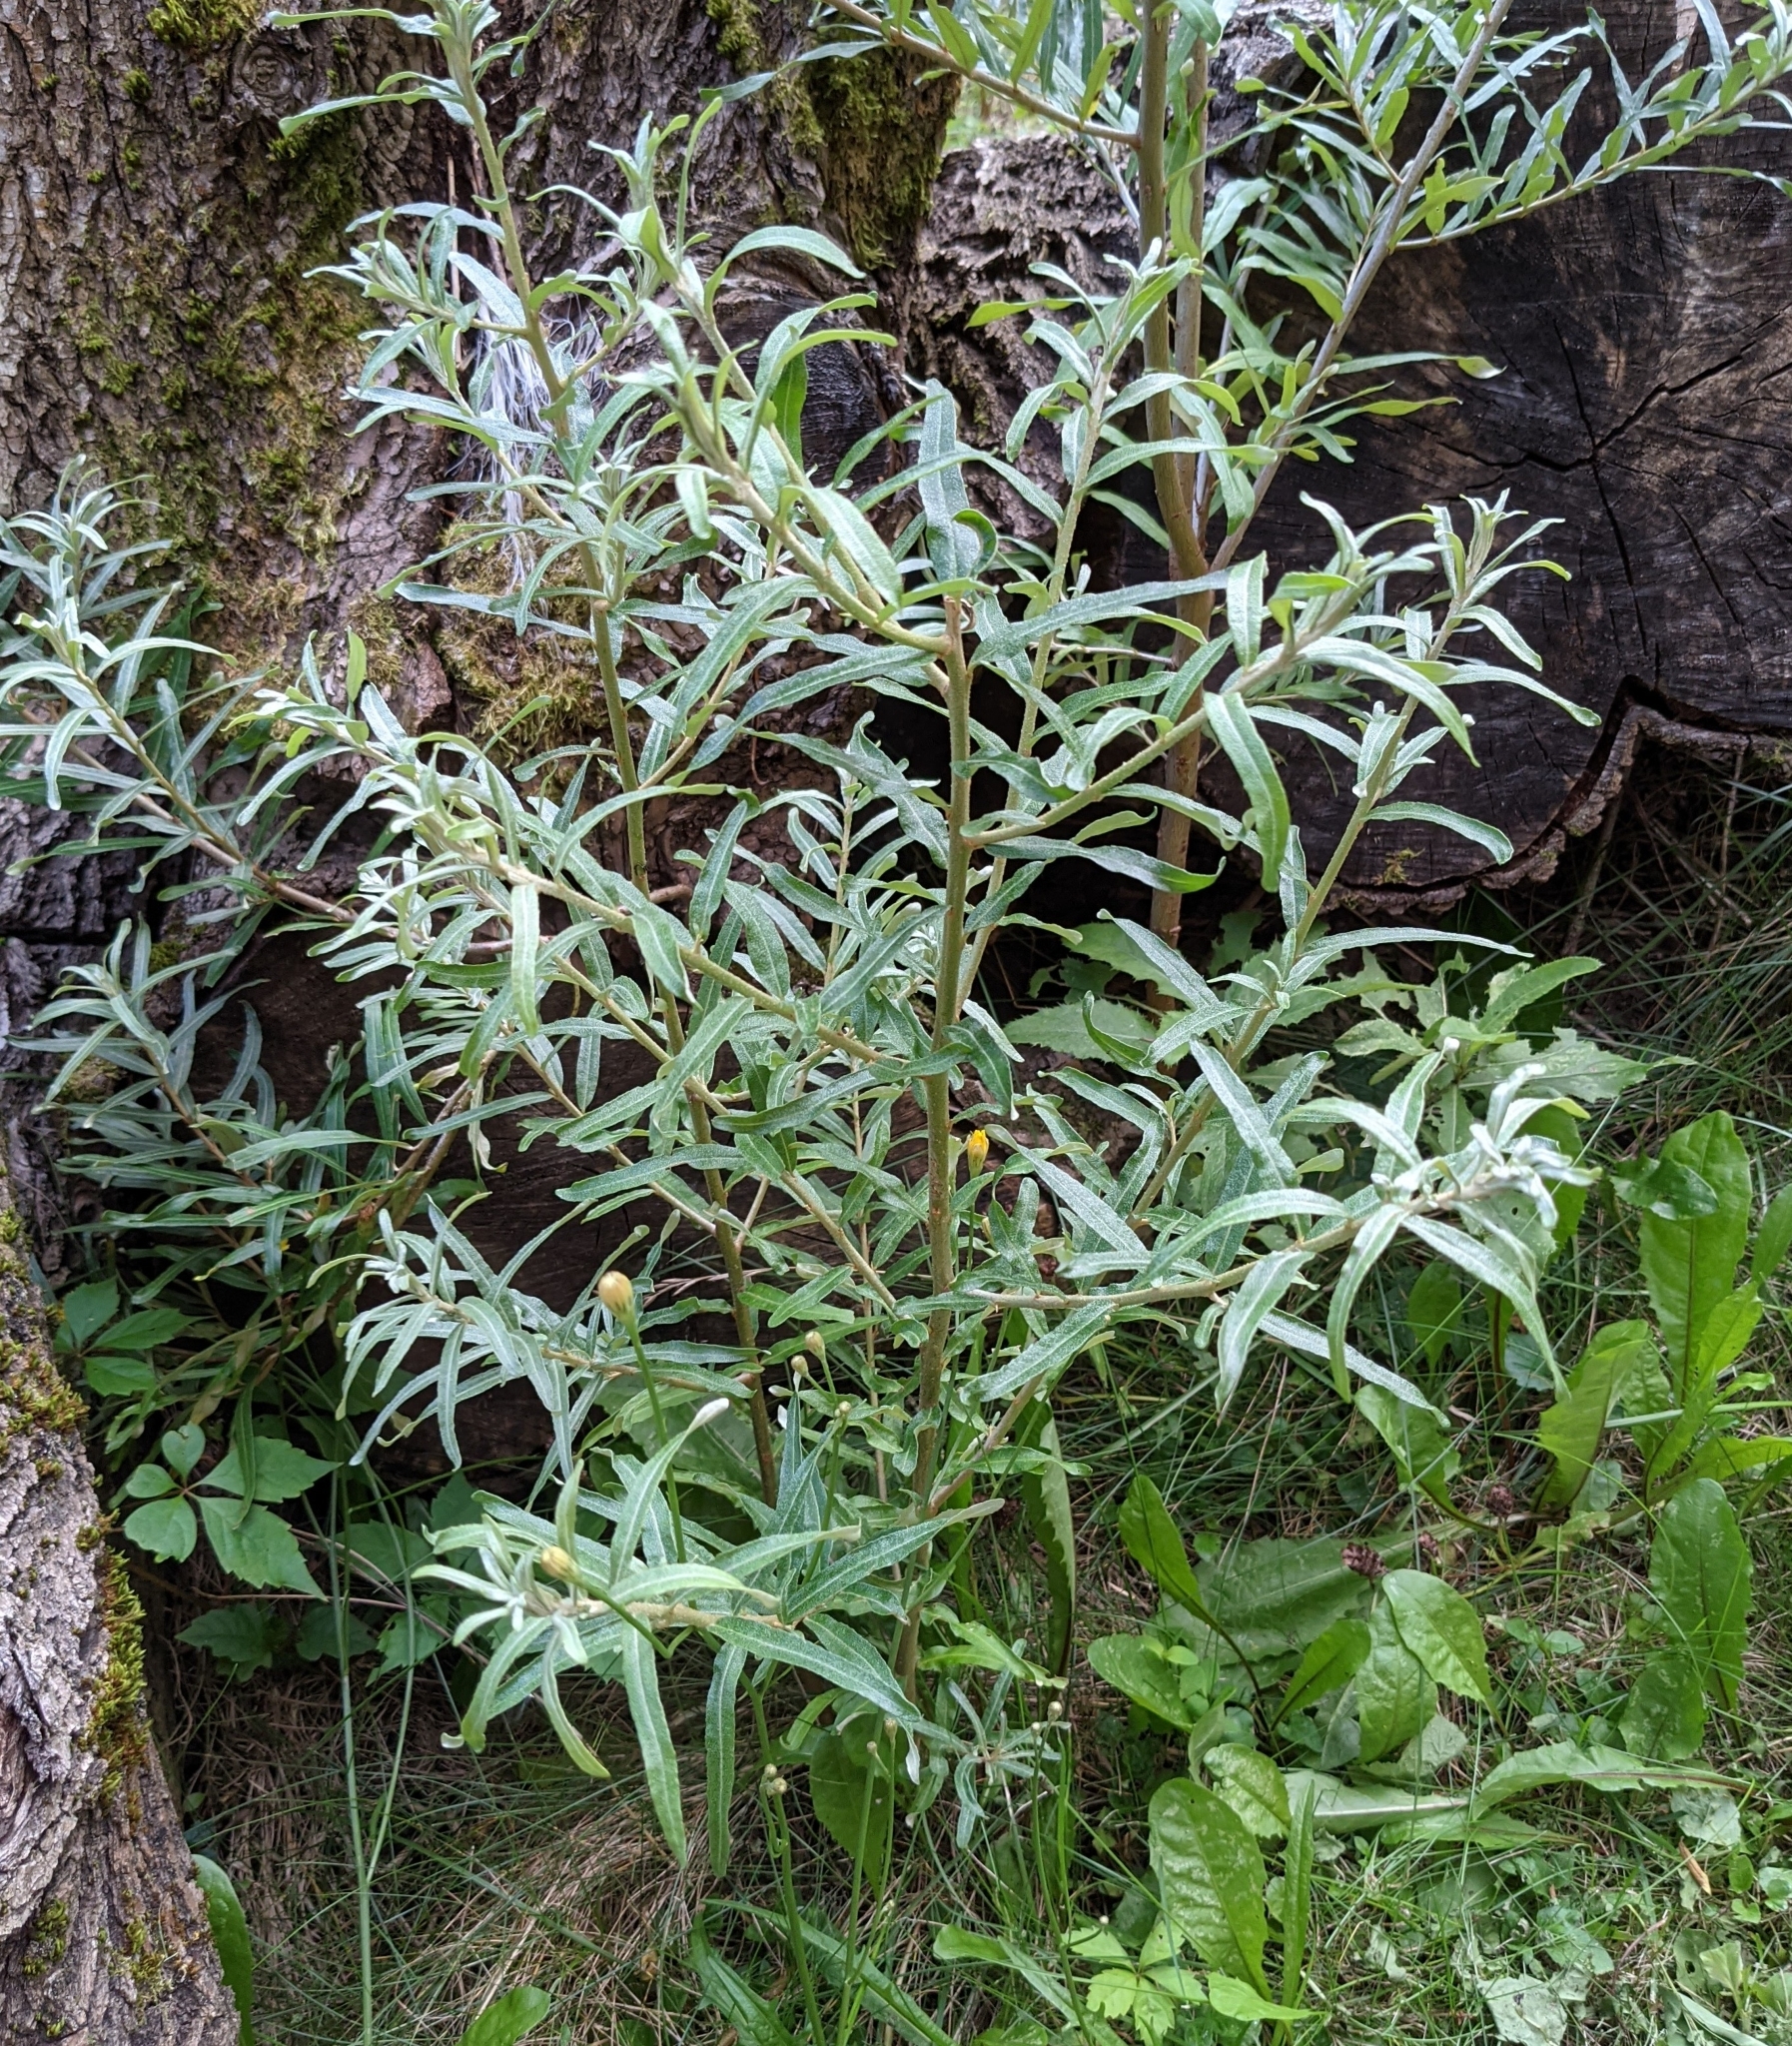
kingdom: Plantae
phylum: Tracheophyta
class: Magnoliopsida
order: Rosales
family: Elaeagnaceae
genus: Hippophae
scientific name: Hippophae rhamnoides
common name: Sea-buckthorn
